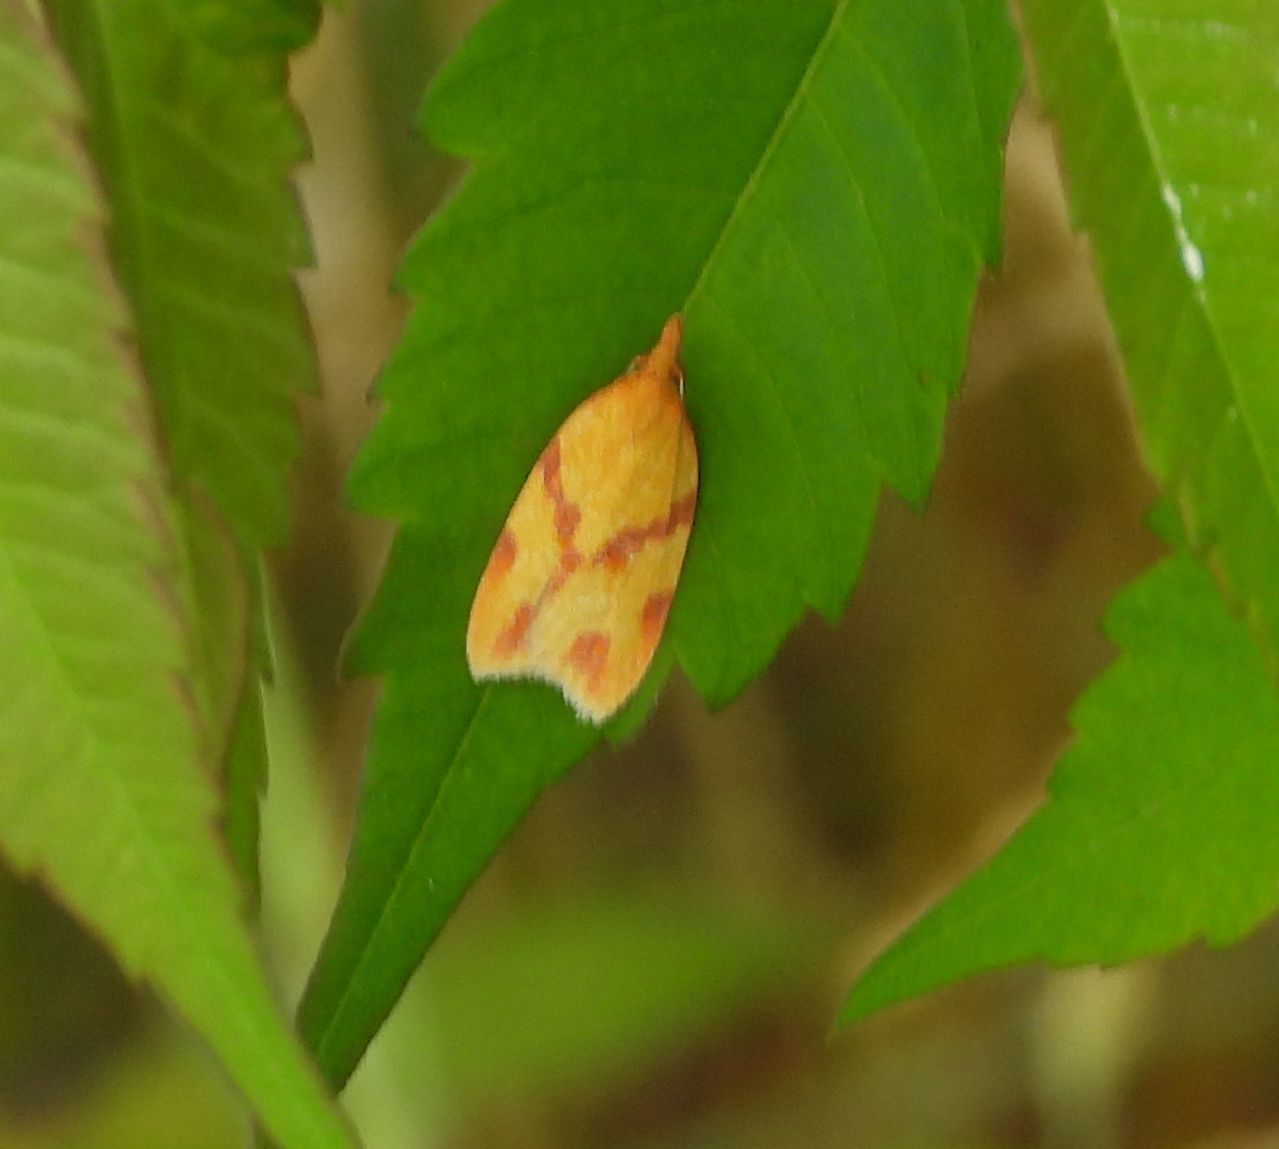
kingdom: Animalia
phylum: Arthropoda
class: Insecta
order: Lepidoptera
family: Tortricidae
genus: Sparganothis
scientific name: Sparganothis unifasciana
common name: One-lined sparganothis moth
